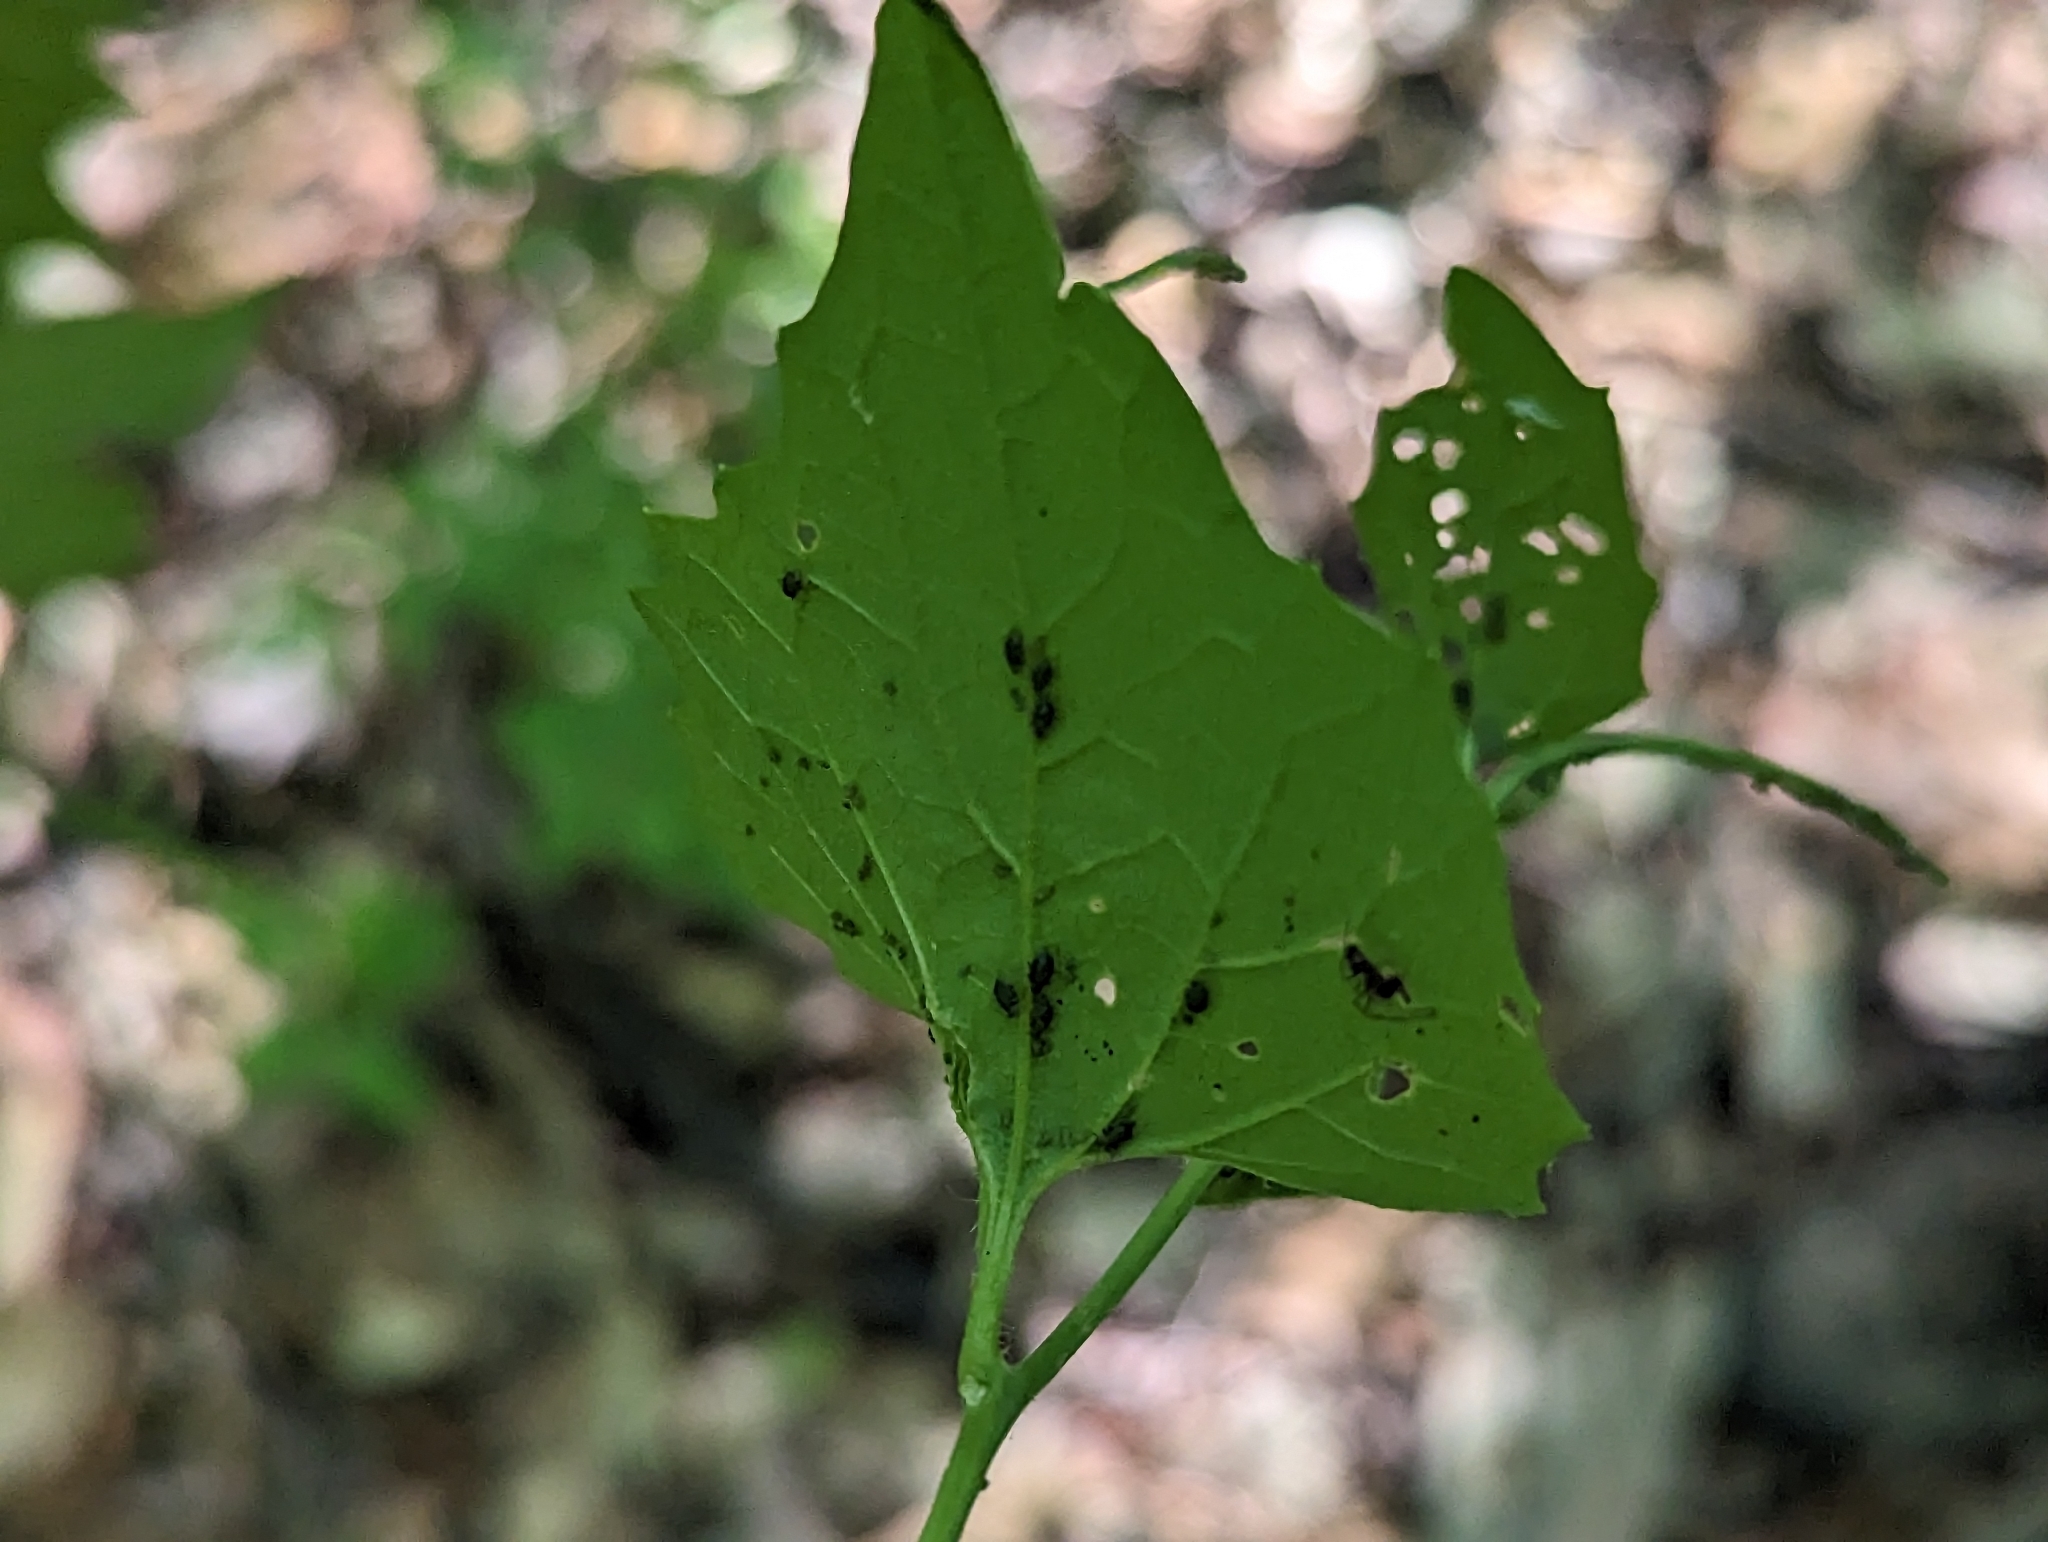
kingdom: Animalia
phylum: Arthropoda
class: Insecta
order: Hemiptera
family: Aphididae
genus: Lipaphis
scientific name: Lipaphis alliariae
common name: Granade aphid
